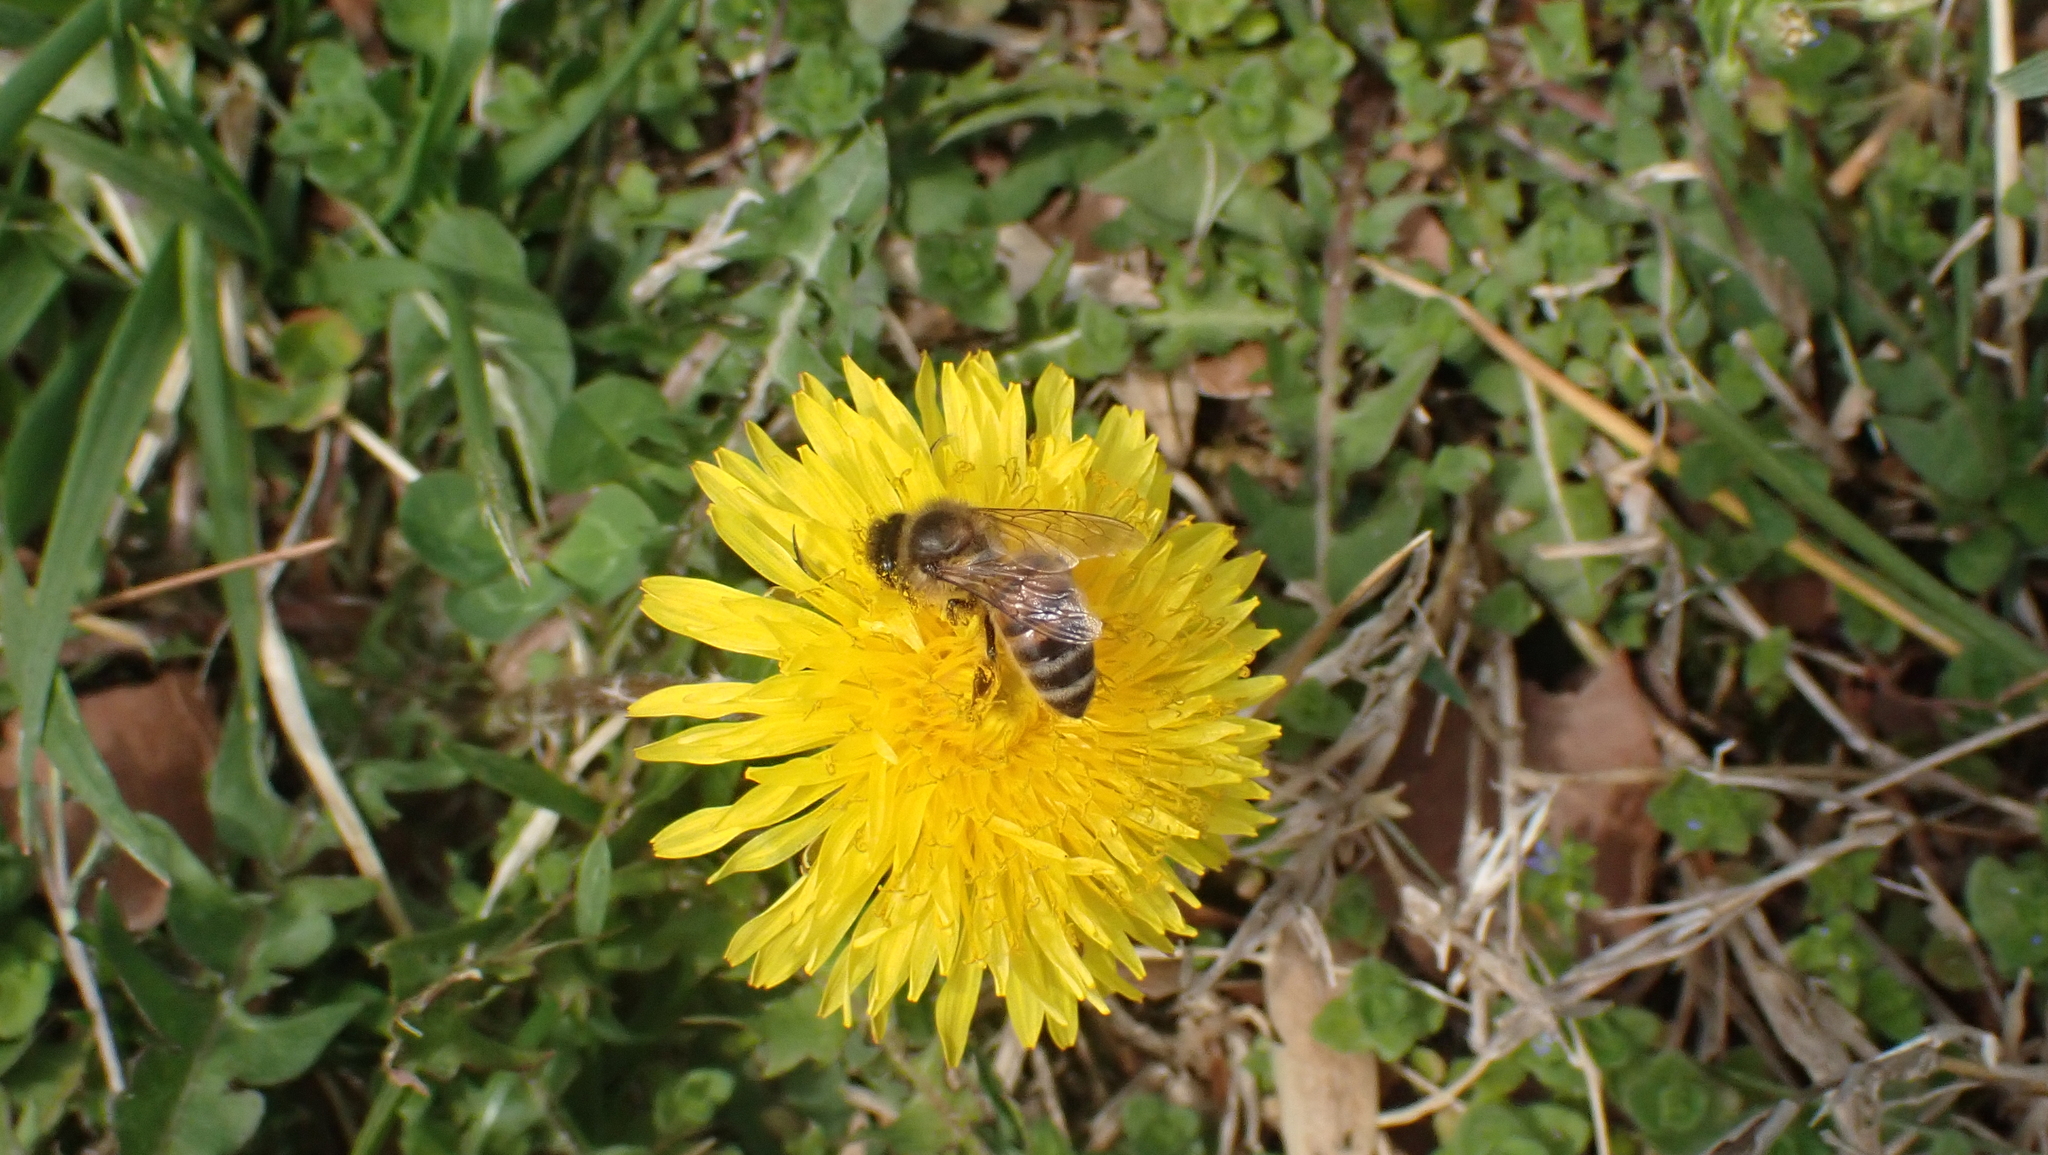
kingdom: Animalia
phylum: Arthropoda
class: Insecta
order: Hymenoptera
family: Apidae
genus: Apis
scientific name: Apis mellifera
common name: Honey bee
